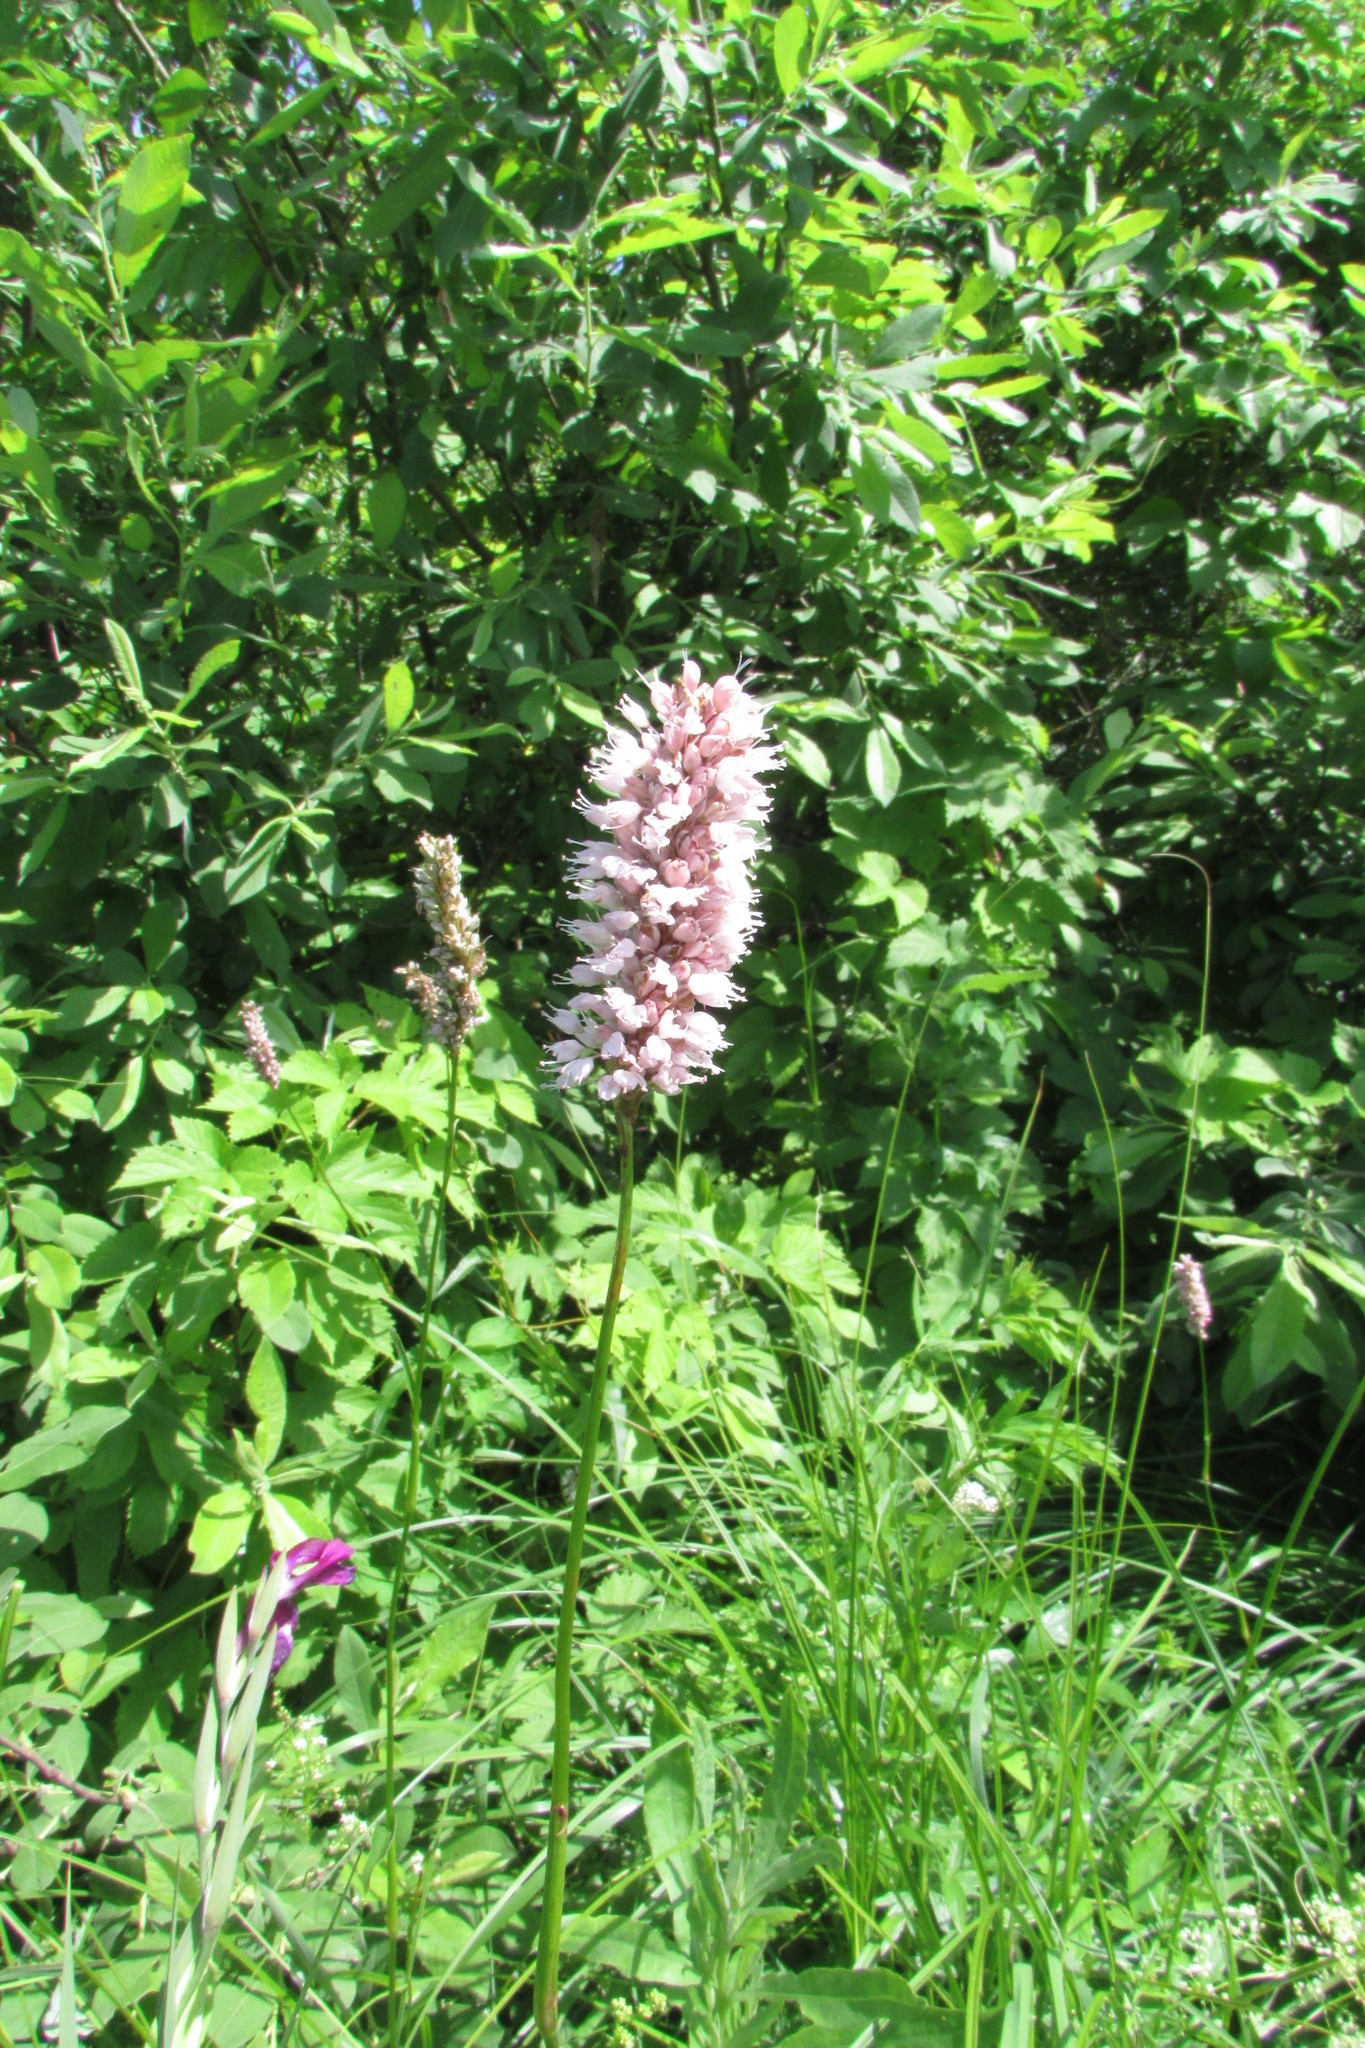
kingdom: Plantae
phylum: Tracheophyta
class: Magnoliopsida
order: Caryophyllales
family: Polygonaceae
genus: Bistorta
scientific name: Bistorta officinalis
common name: Common bistort
